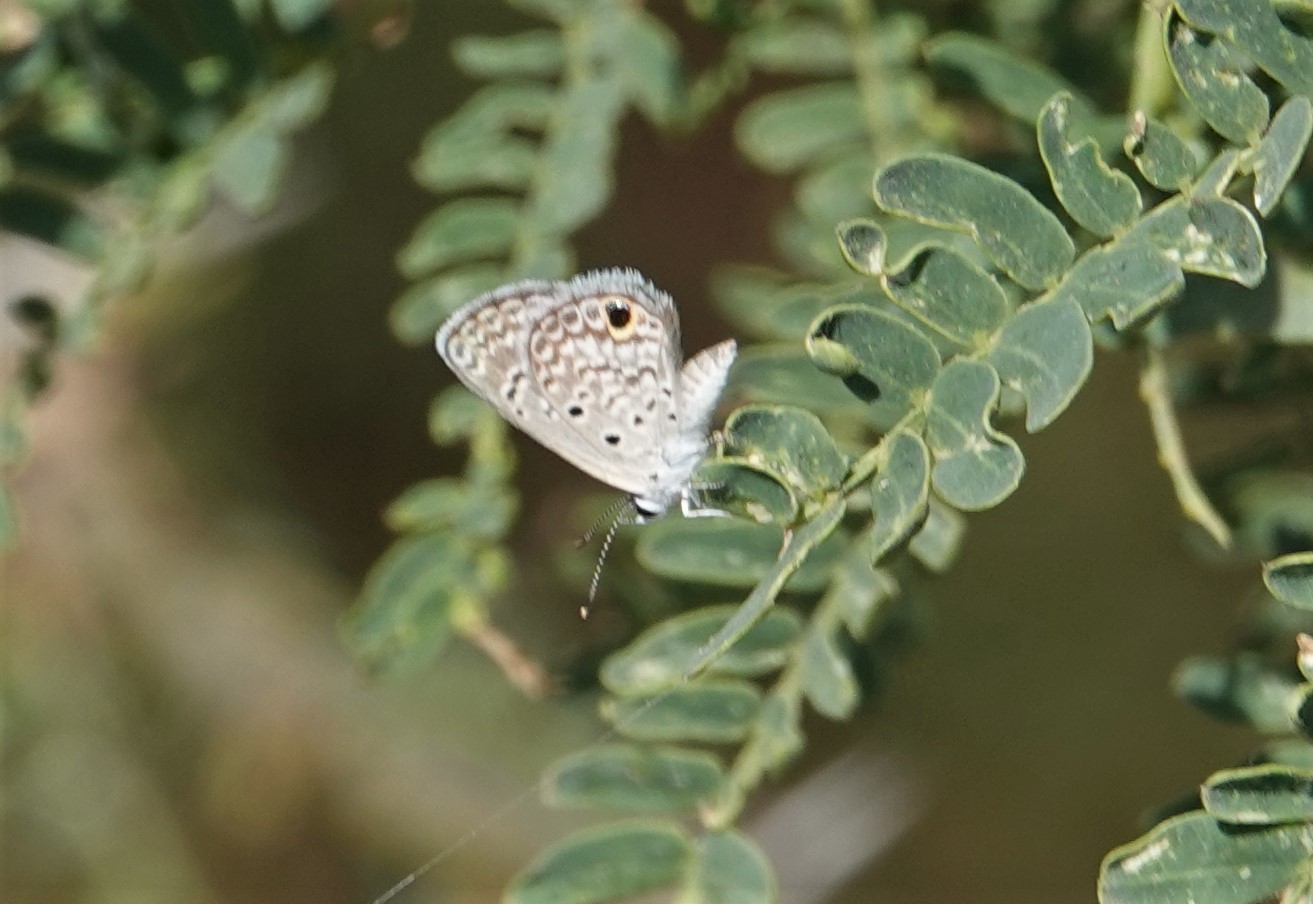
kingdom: Animalia
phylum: Arthropoda
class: Insecta
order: Lepidoptera
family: Lycaenidae
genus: Hemiargus
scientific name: Hemiargus ceraunus
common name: Ceraunus blue
